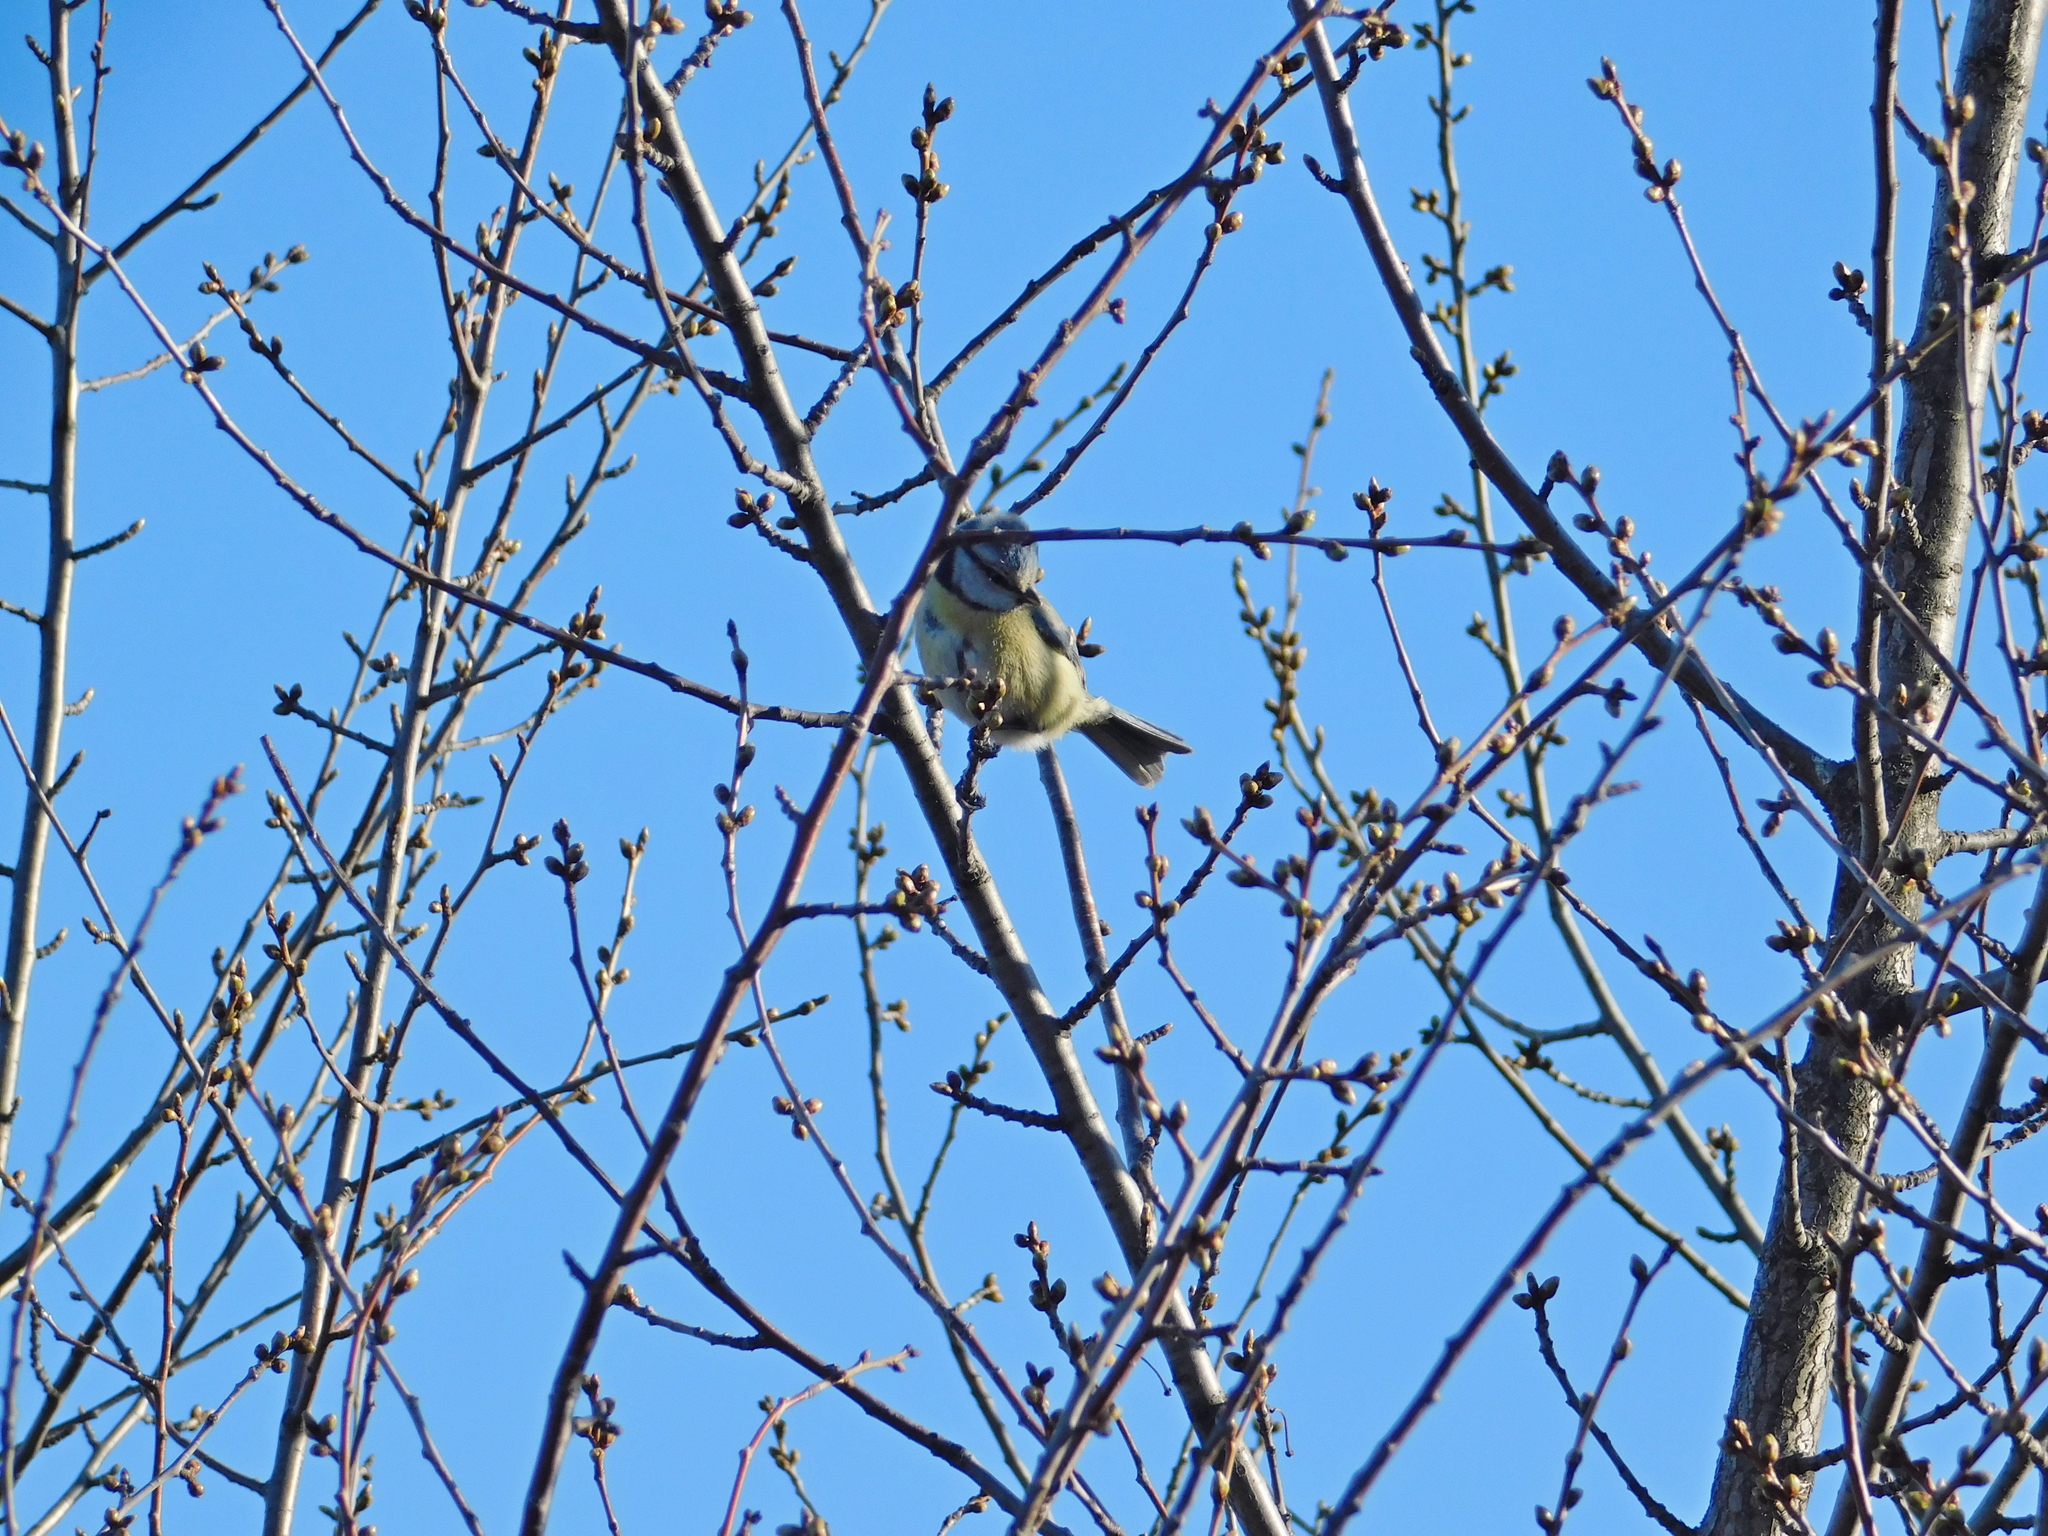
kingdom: Animalia
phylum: Chordata
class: Aves
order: Passeriformes
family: Paridae
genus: Cyanistes
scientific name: Cyanistes caeruleus
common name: Eurasian blue tit
